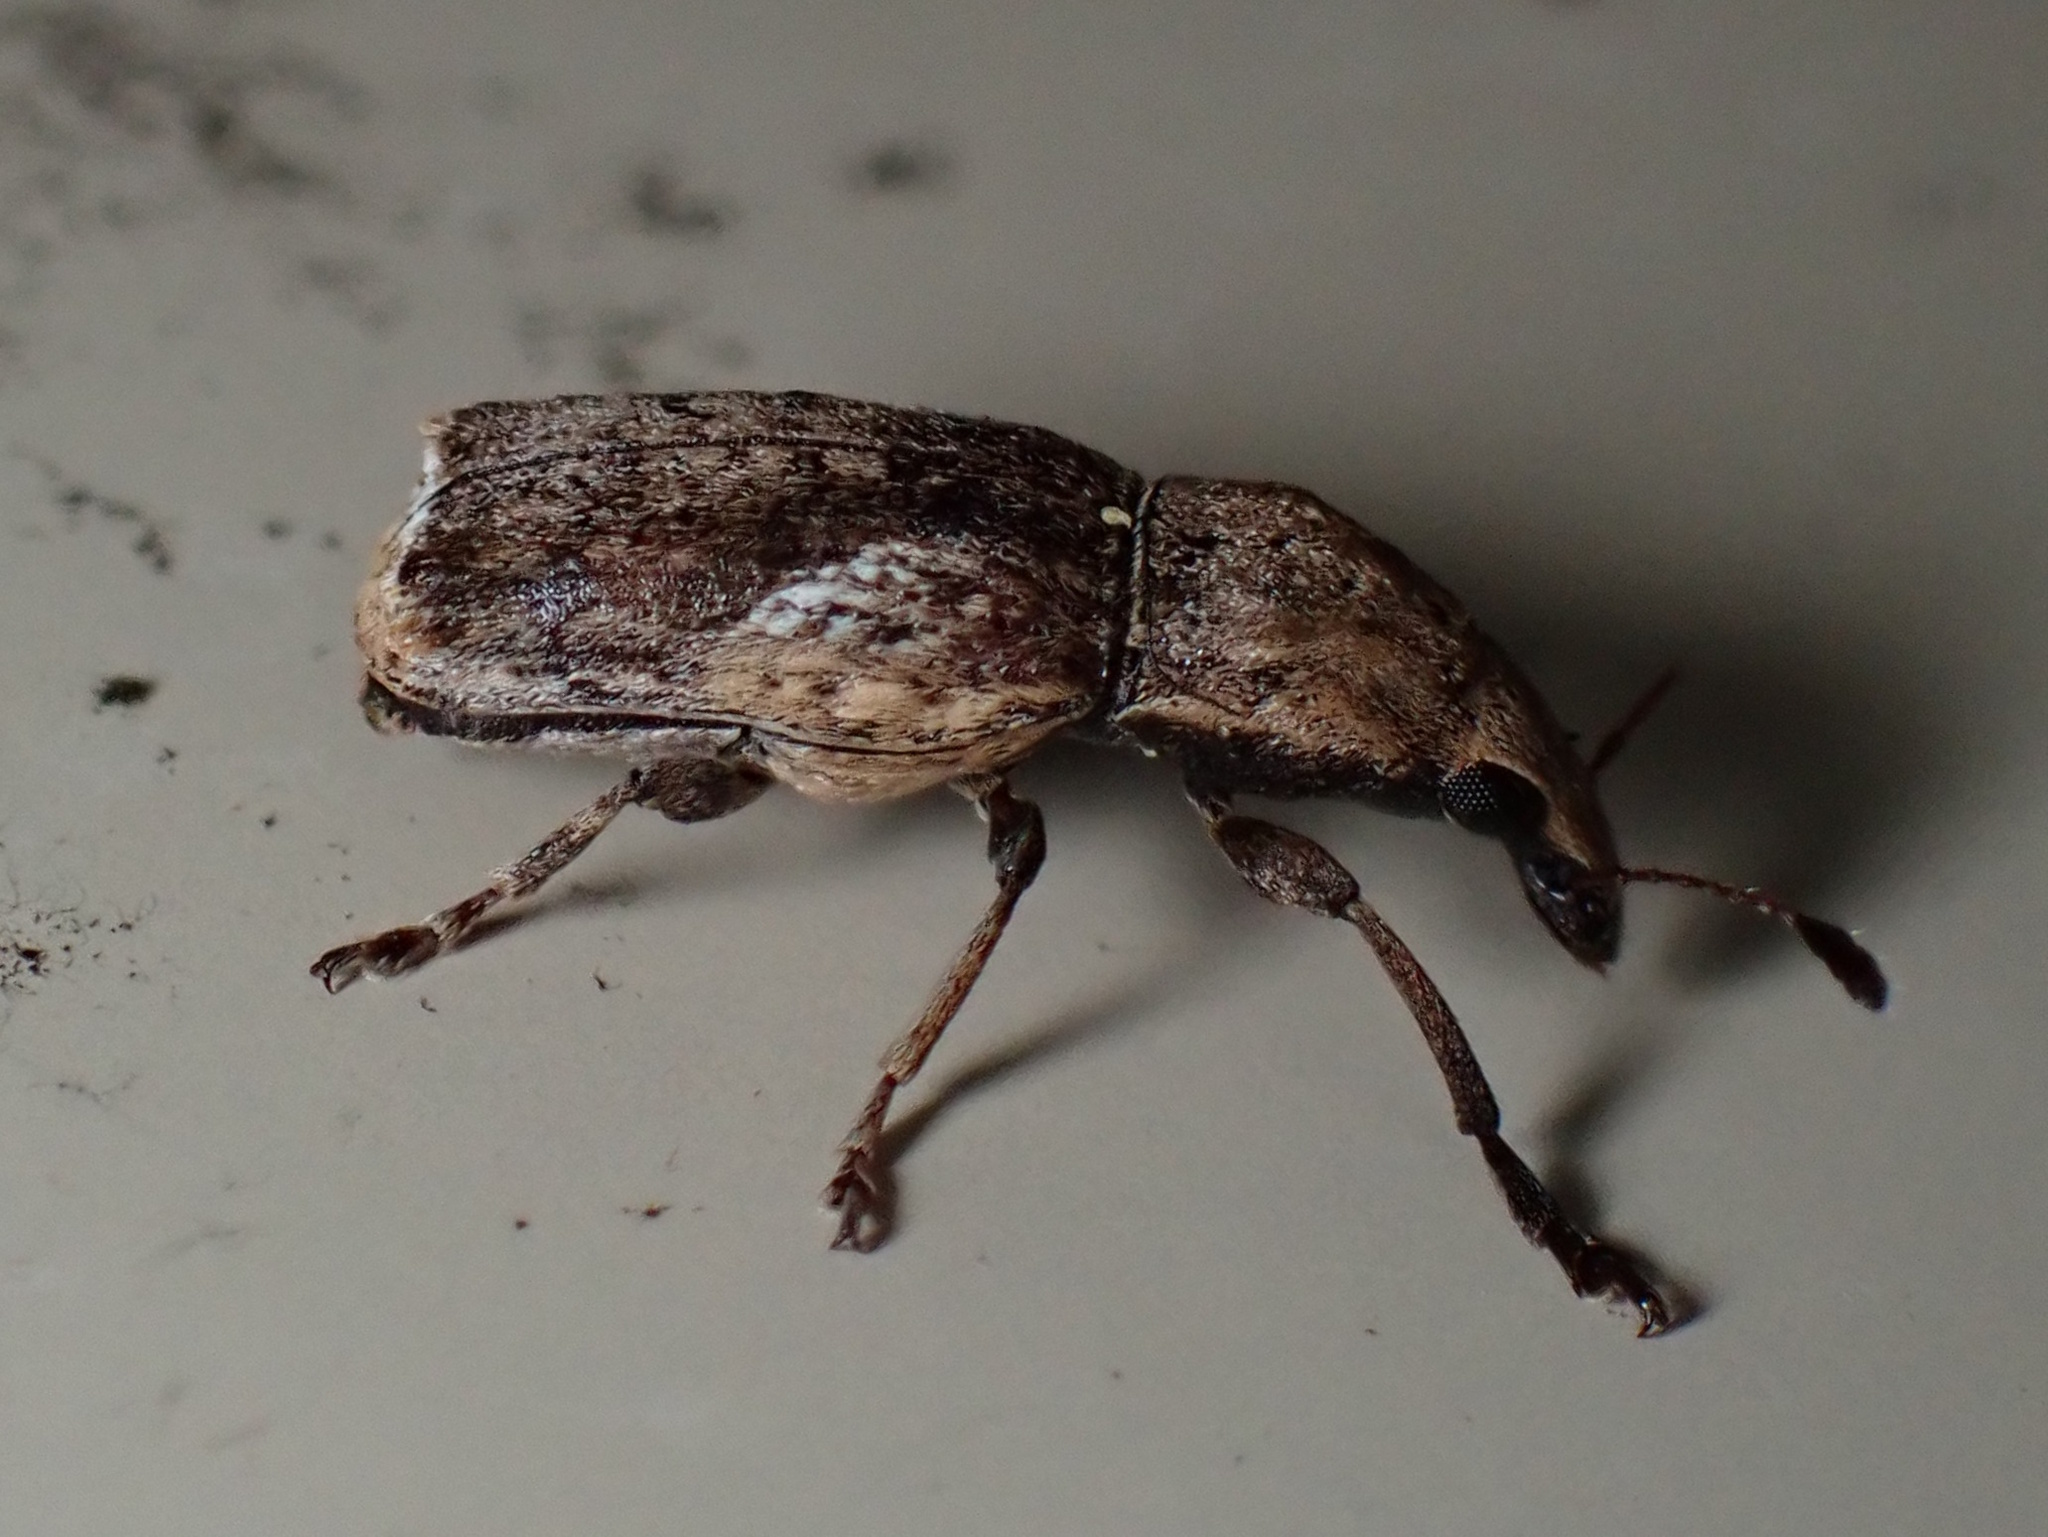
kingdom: Animalia
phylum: Arthropoda
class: Insecta
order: Coleoptera
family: Anthribidae
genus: Genethila
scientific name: Genethila retusa
